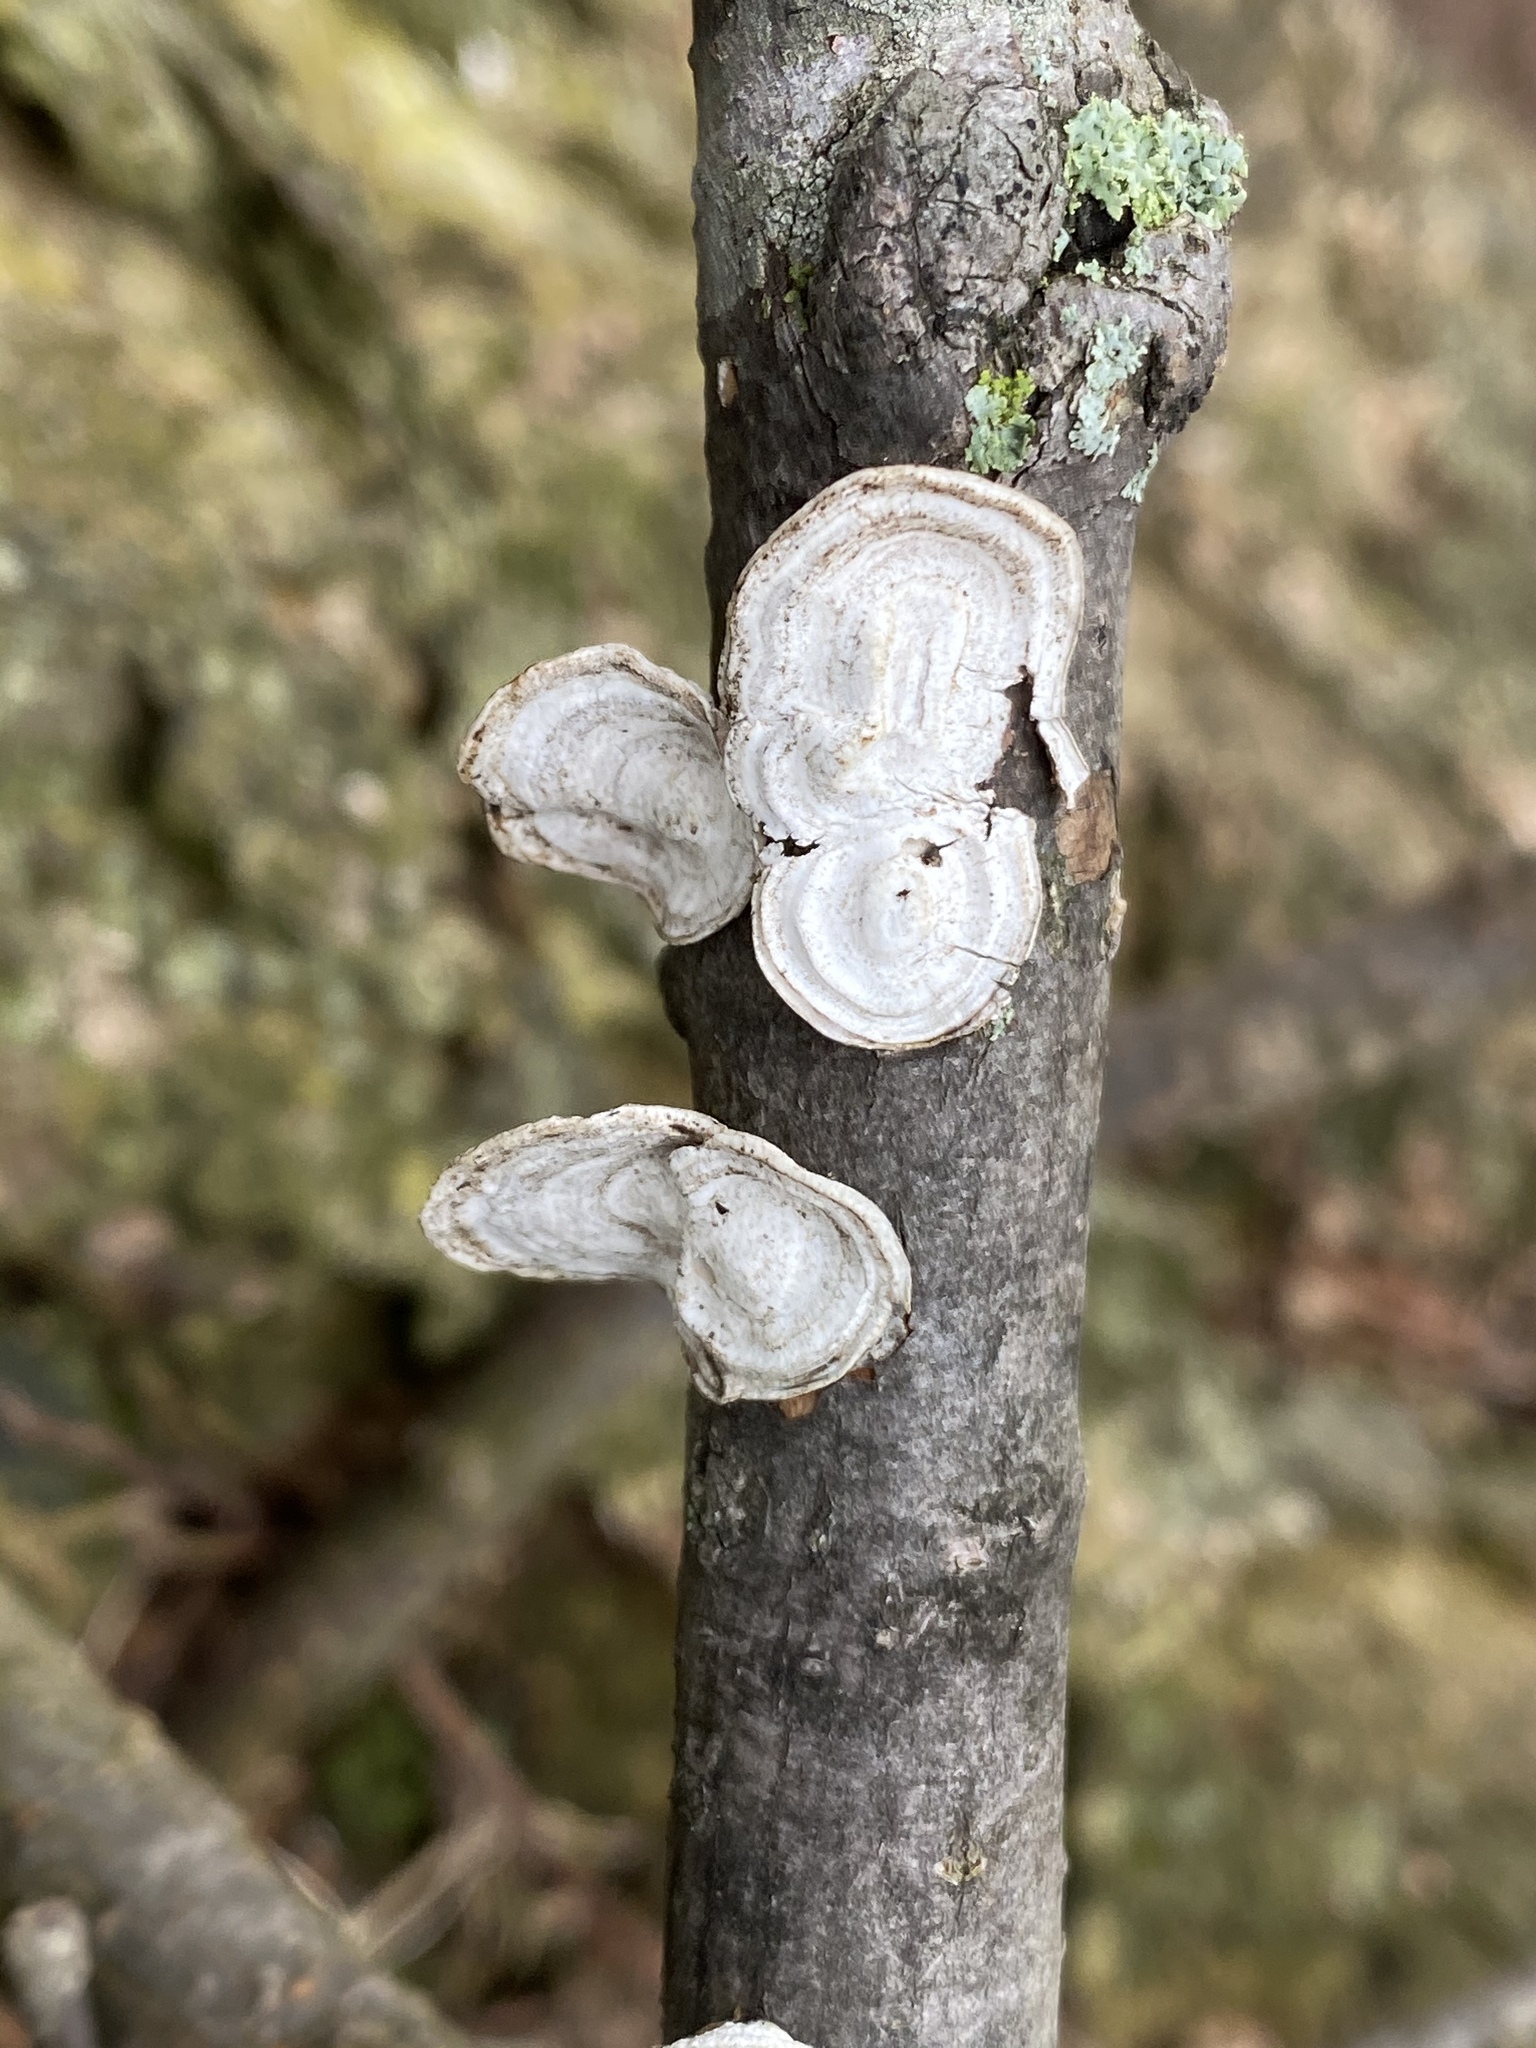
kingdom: Fungi
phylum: Basidiomycota
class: Agaricomycetes
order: Polyporales
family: Polyporaceae
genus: Poronidulus
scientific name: Poronidulus conchifer
